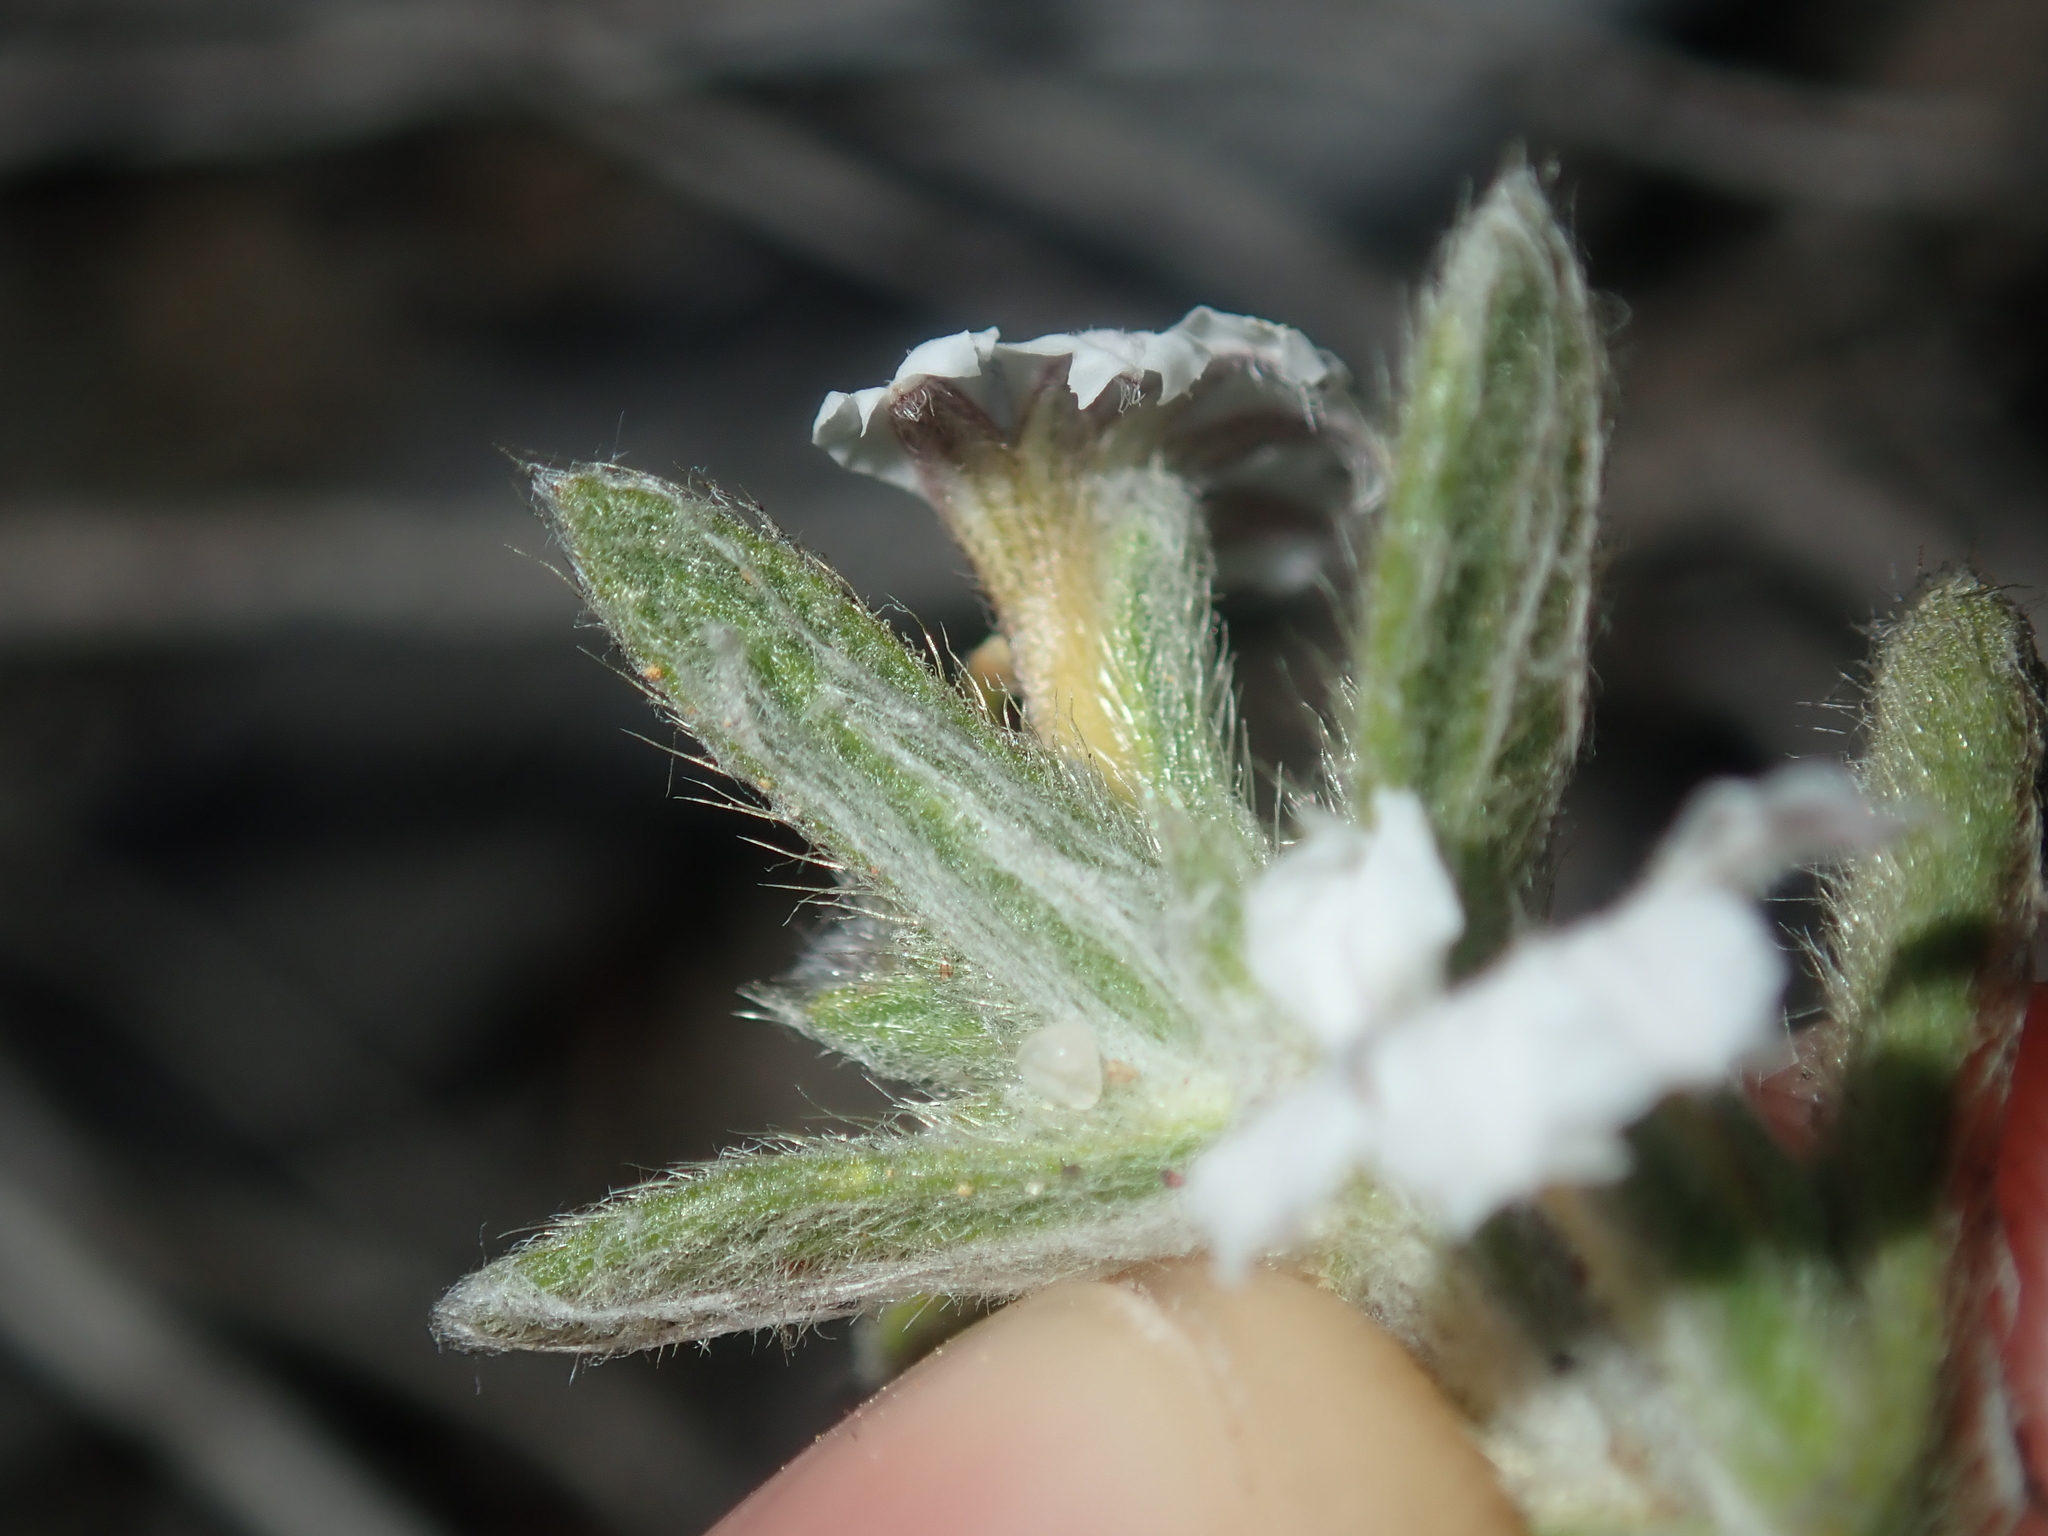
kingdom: Plantae
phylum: Tracheophyta
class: Magnoliopsida
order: Asterales
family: Goodeniaceae
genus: Scaevola
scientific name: Scaevola canescens
